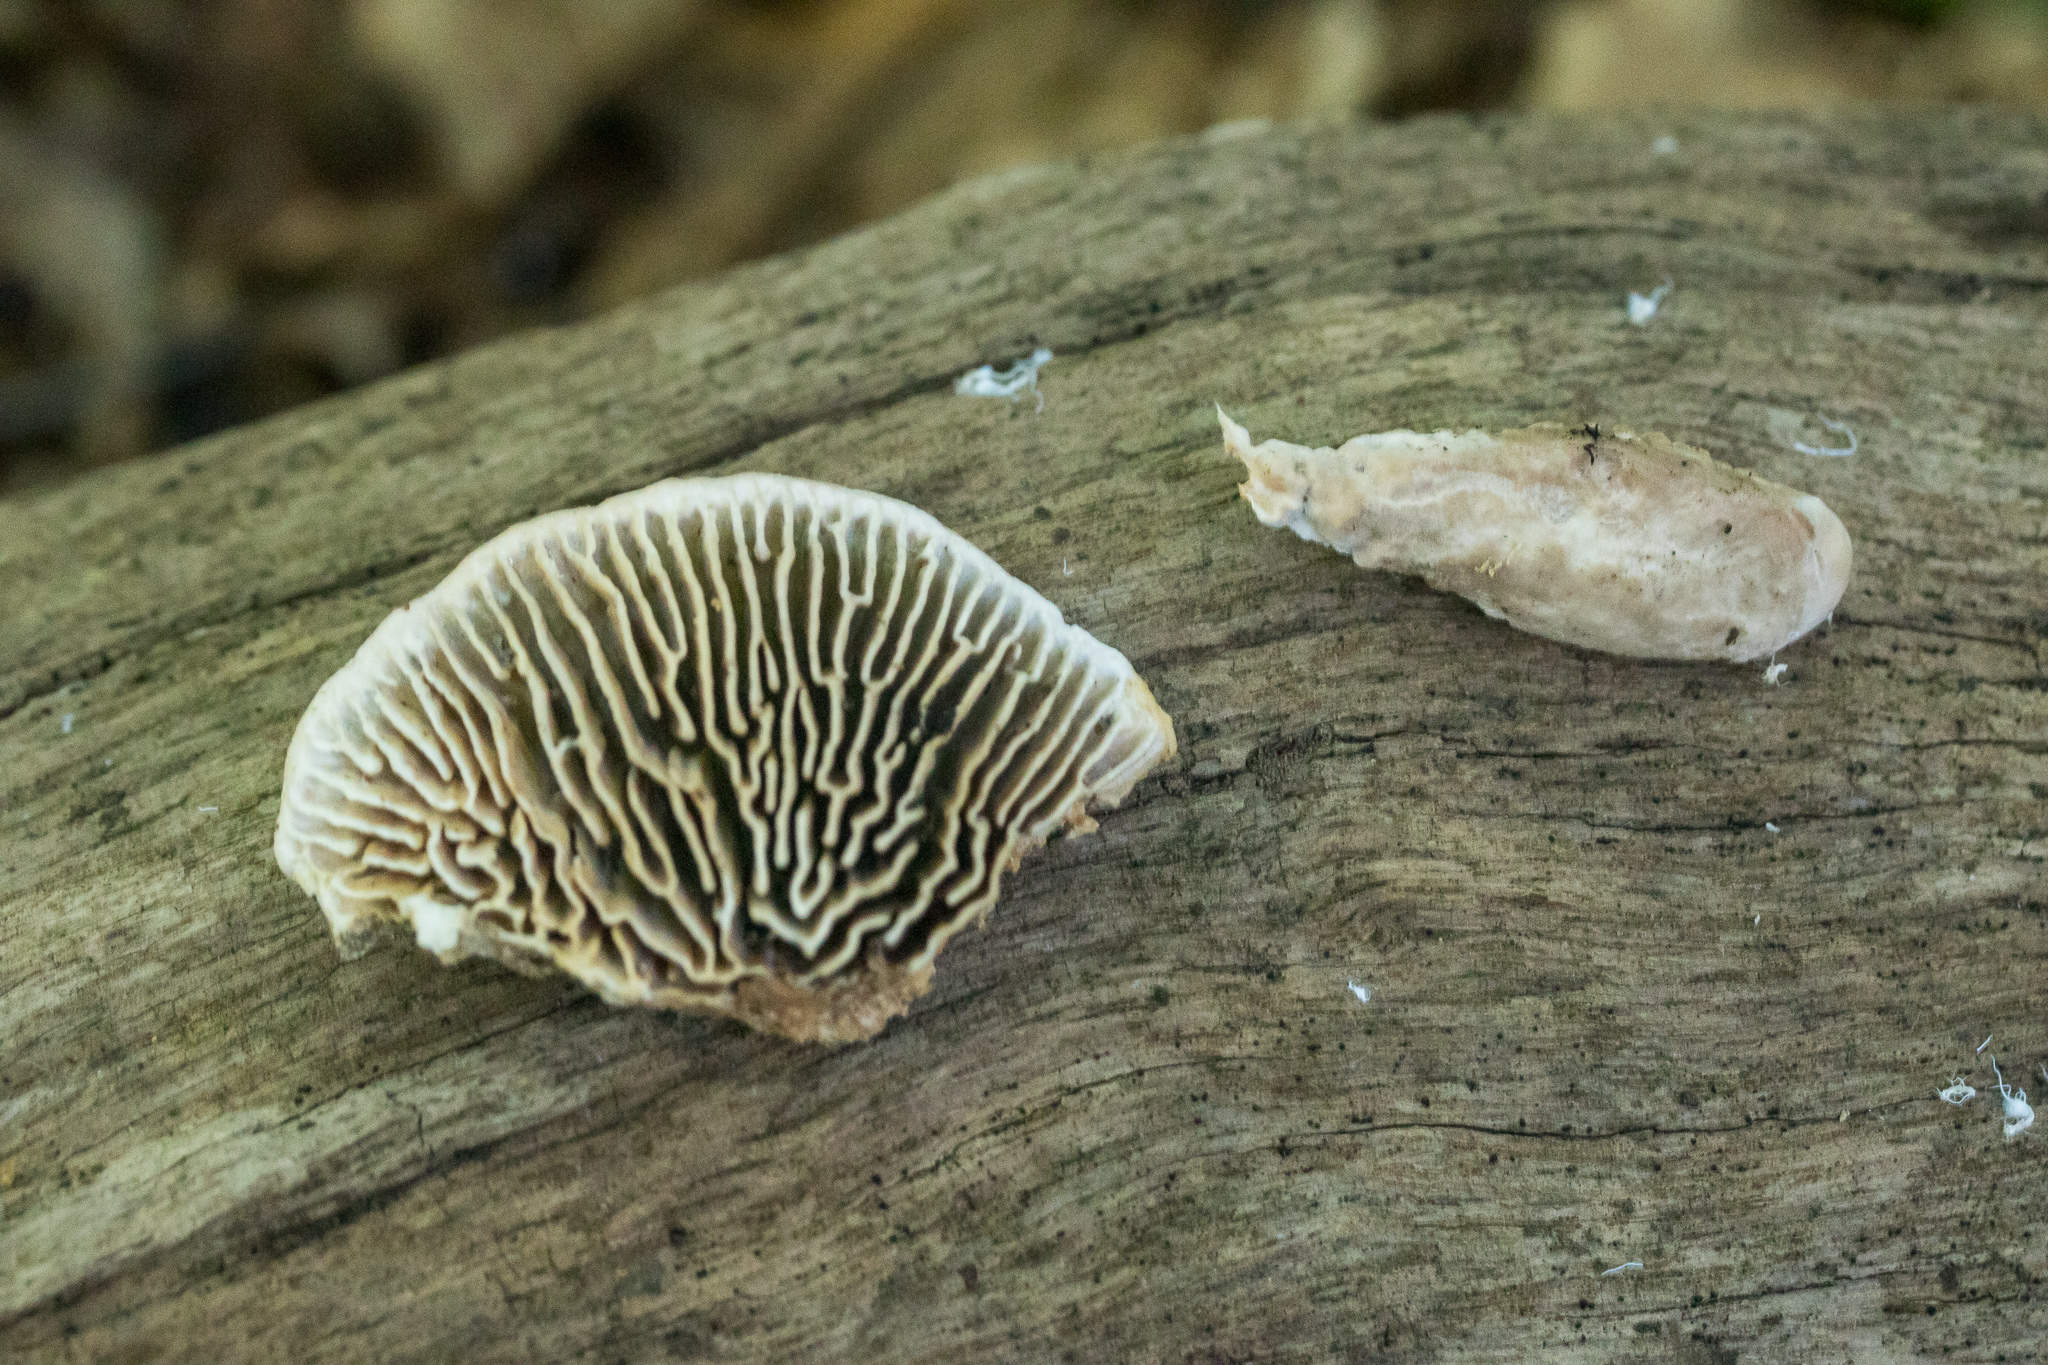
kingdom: Fungi
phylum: Basidiomycota
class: Agaricomycetes
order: Polyporales
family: Fomitopsidaceae
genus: Fomitopsis
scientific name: Fomitopsis
